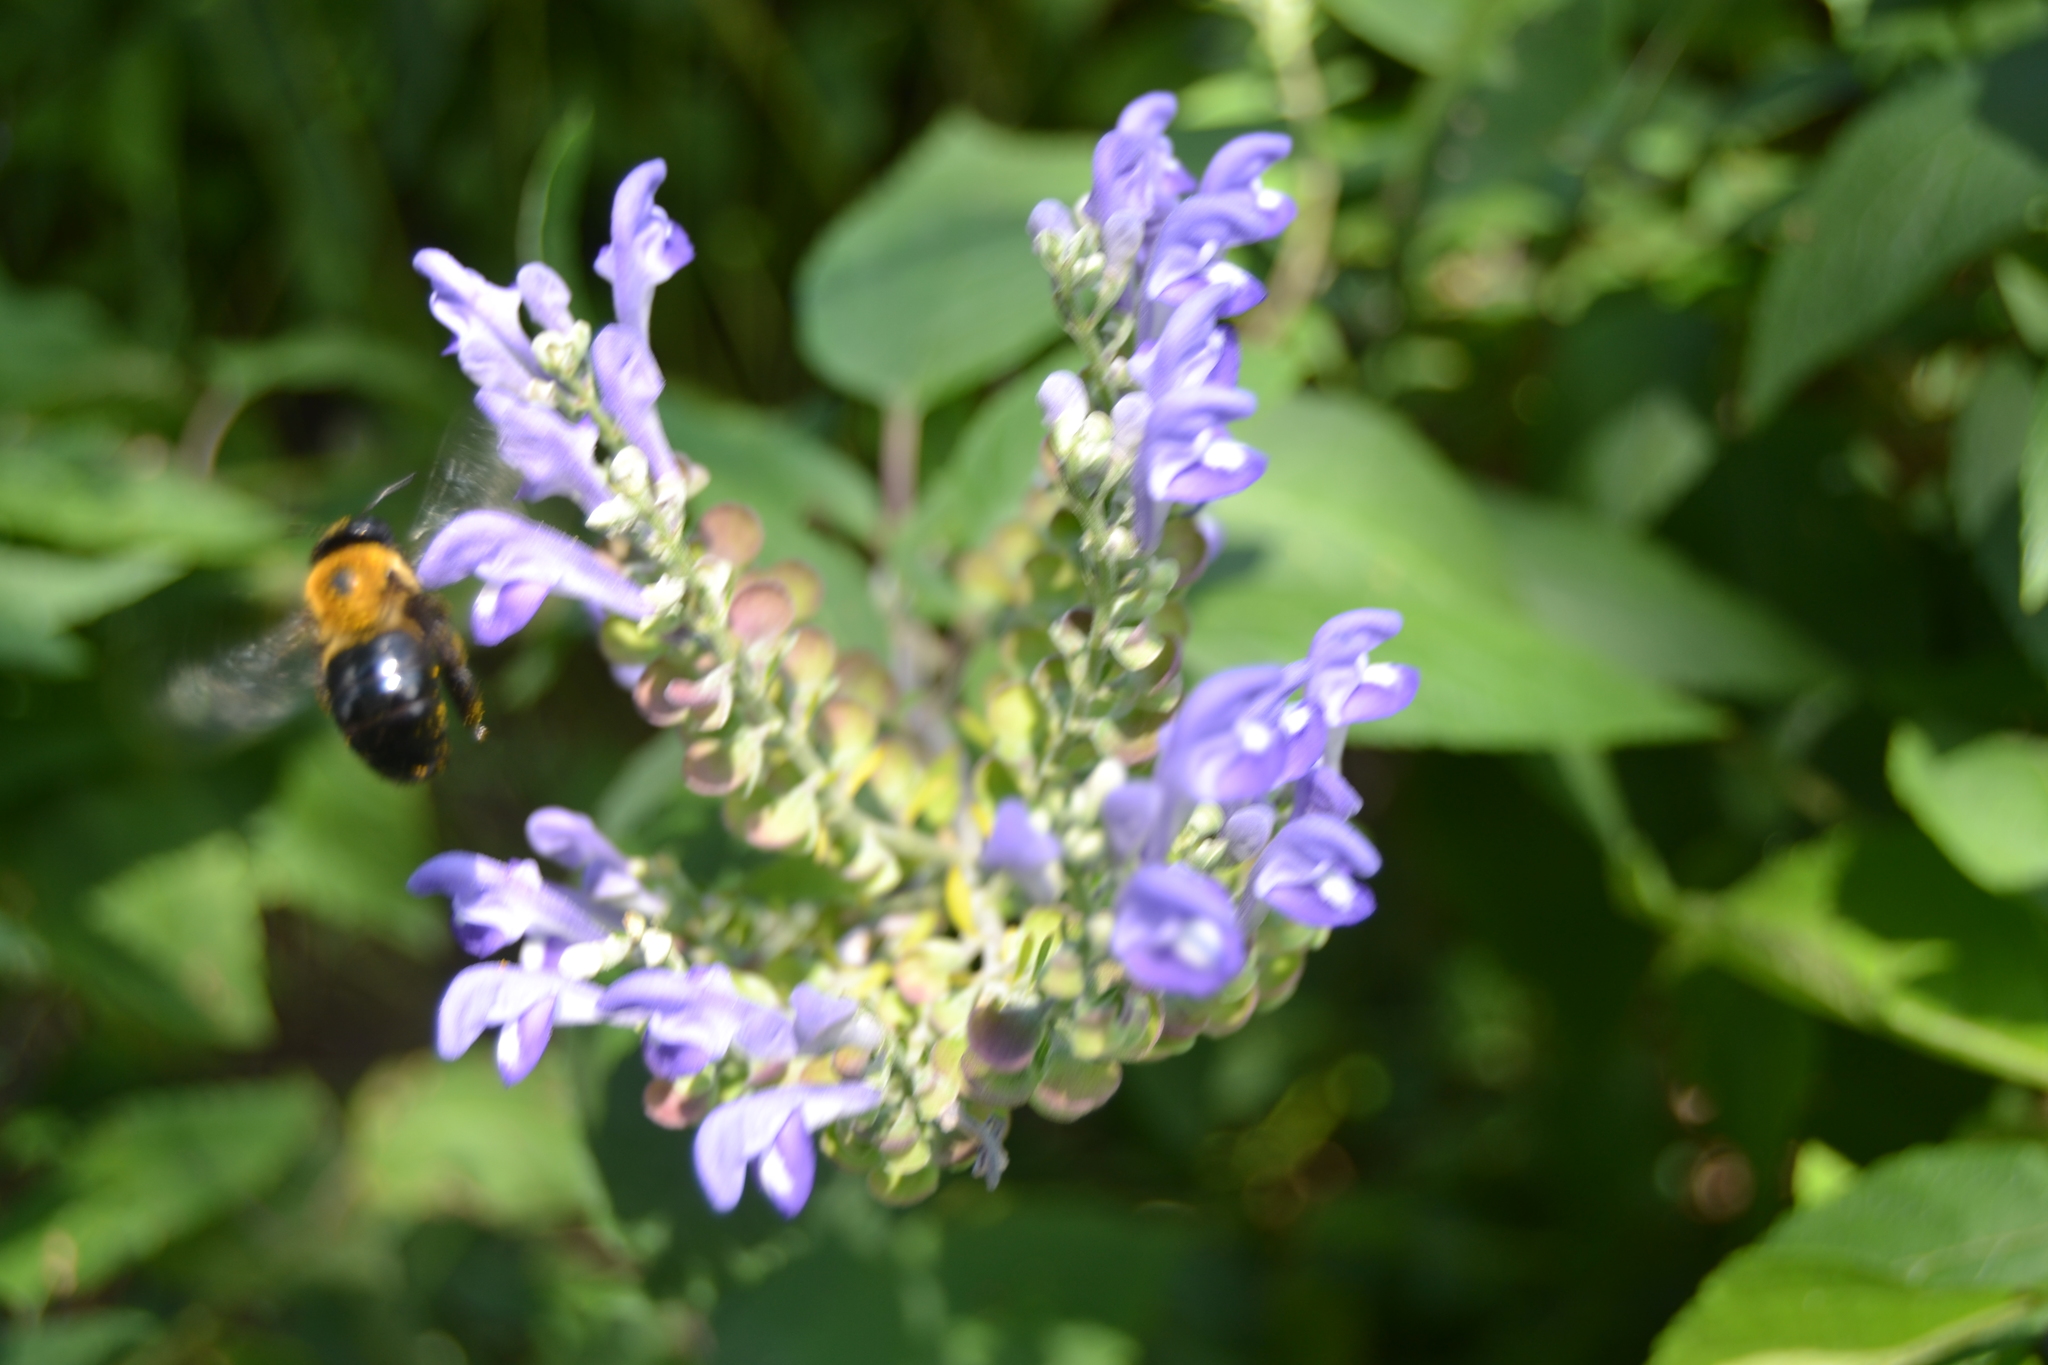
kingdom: Animalia
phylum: Arthropoda
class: Insecta
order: Hymenoptera
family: Apidae
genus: Xylocopa
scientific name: Xylocopa virginica
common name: Carpenter bee
